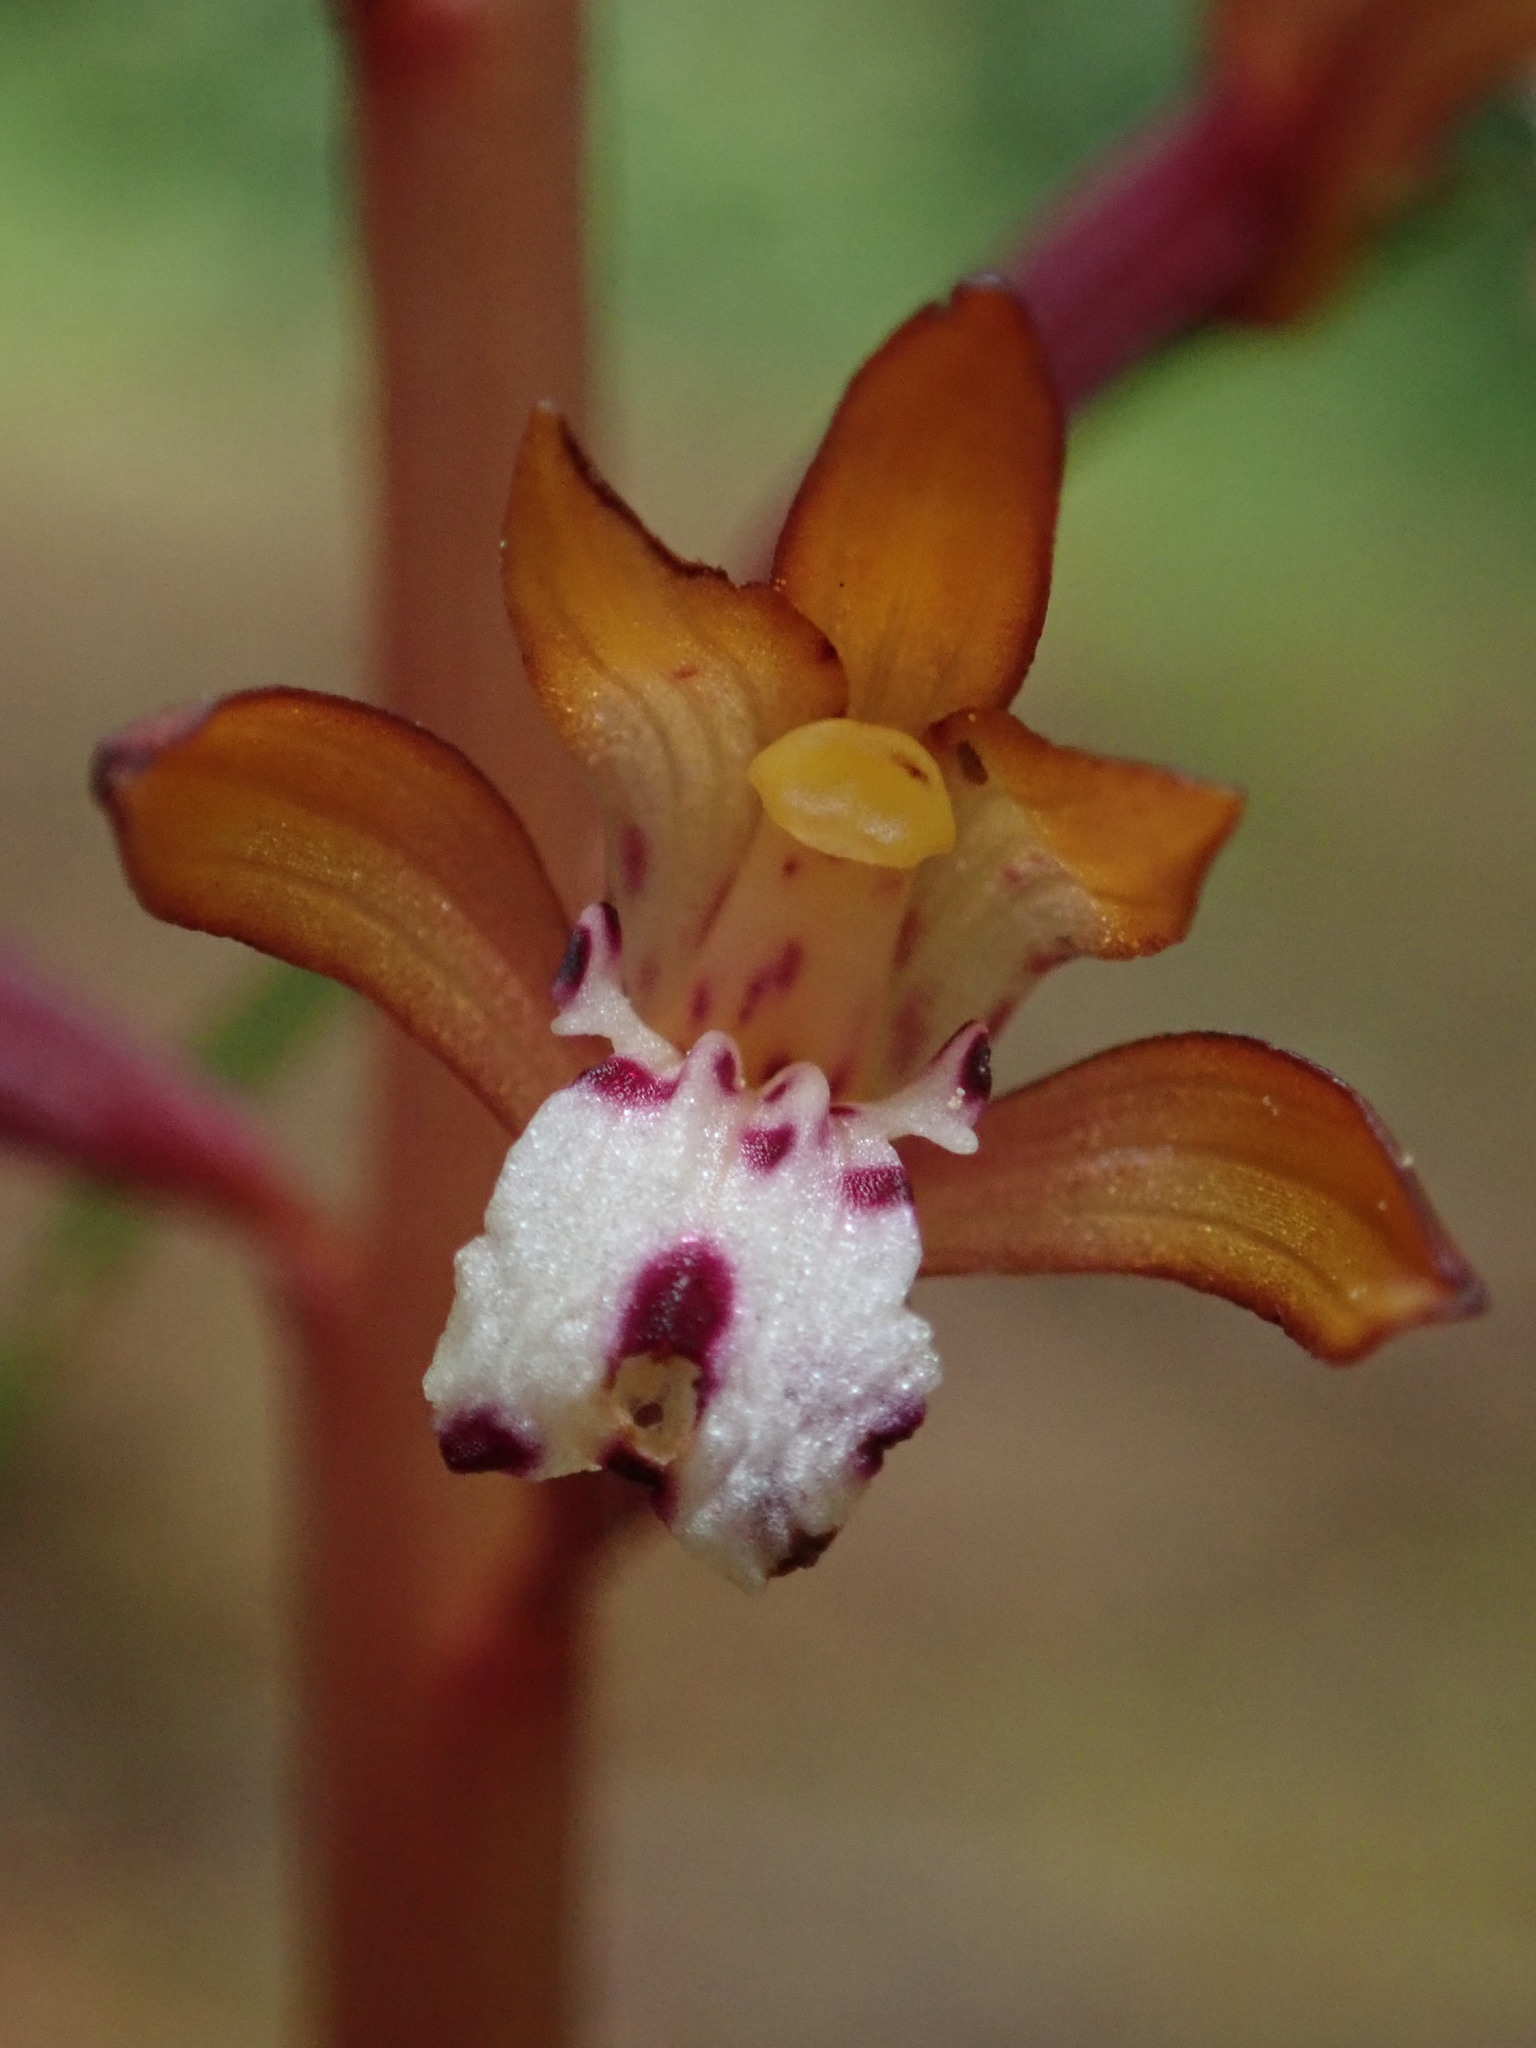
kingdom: Plantae
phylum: Tracheophyta
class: Liliopsida
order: Asparagales
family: Orchidaceae
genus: Corallorhiza
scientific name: Corallorhiza maculata
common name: Spotted coralroot
